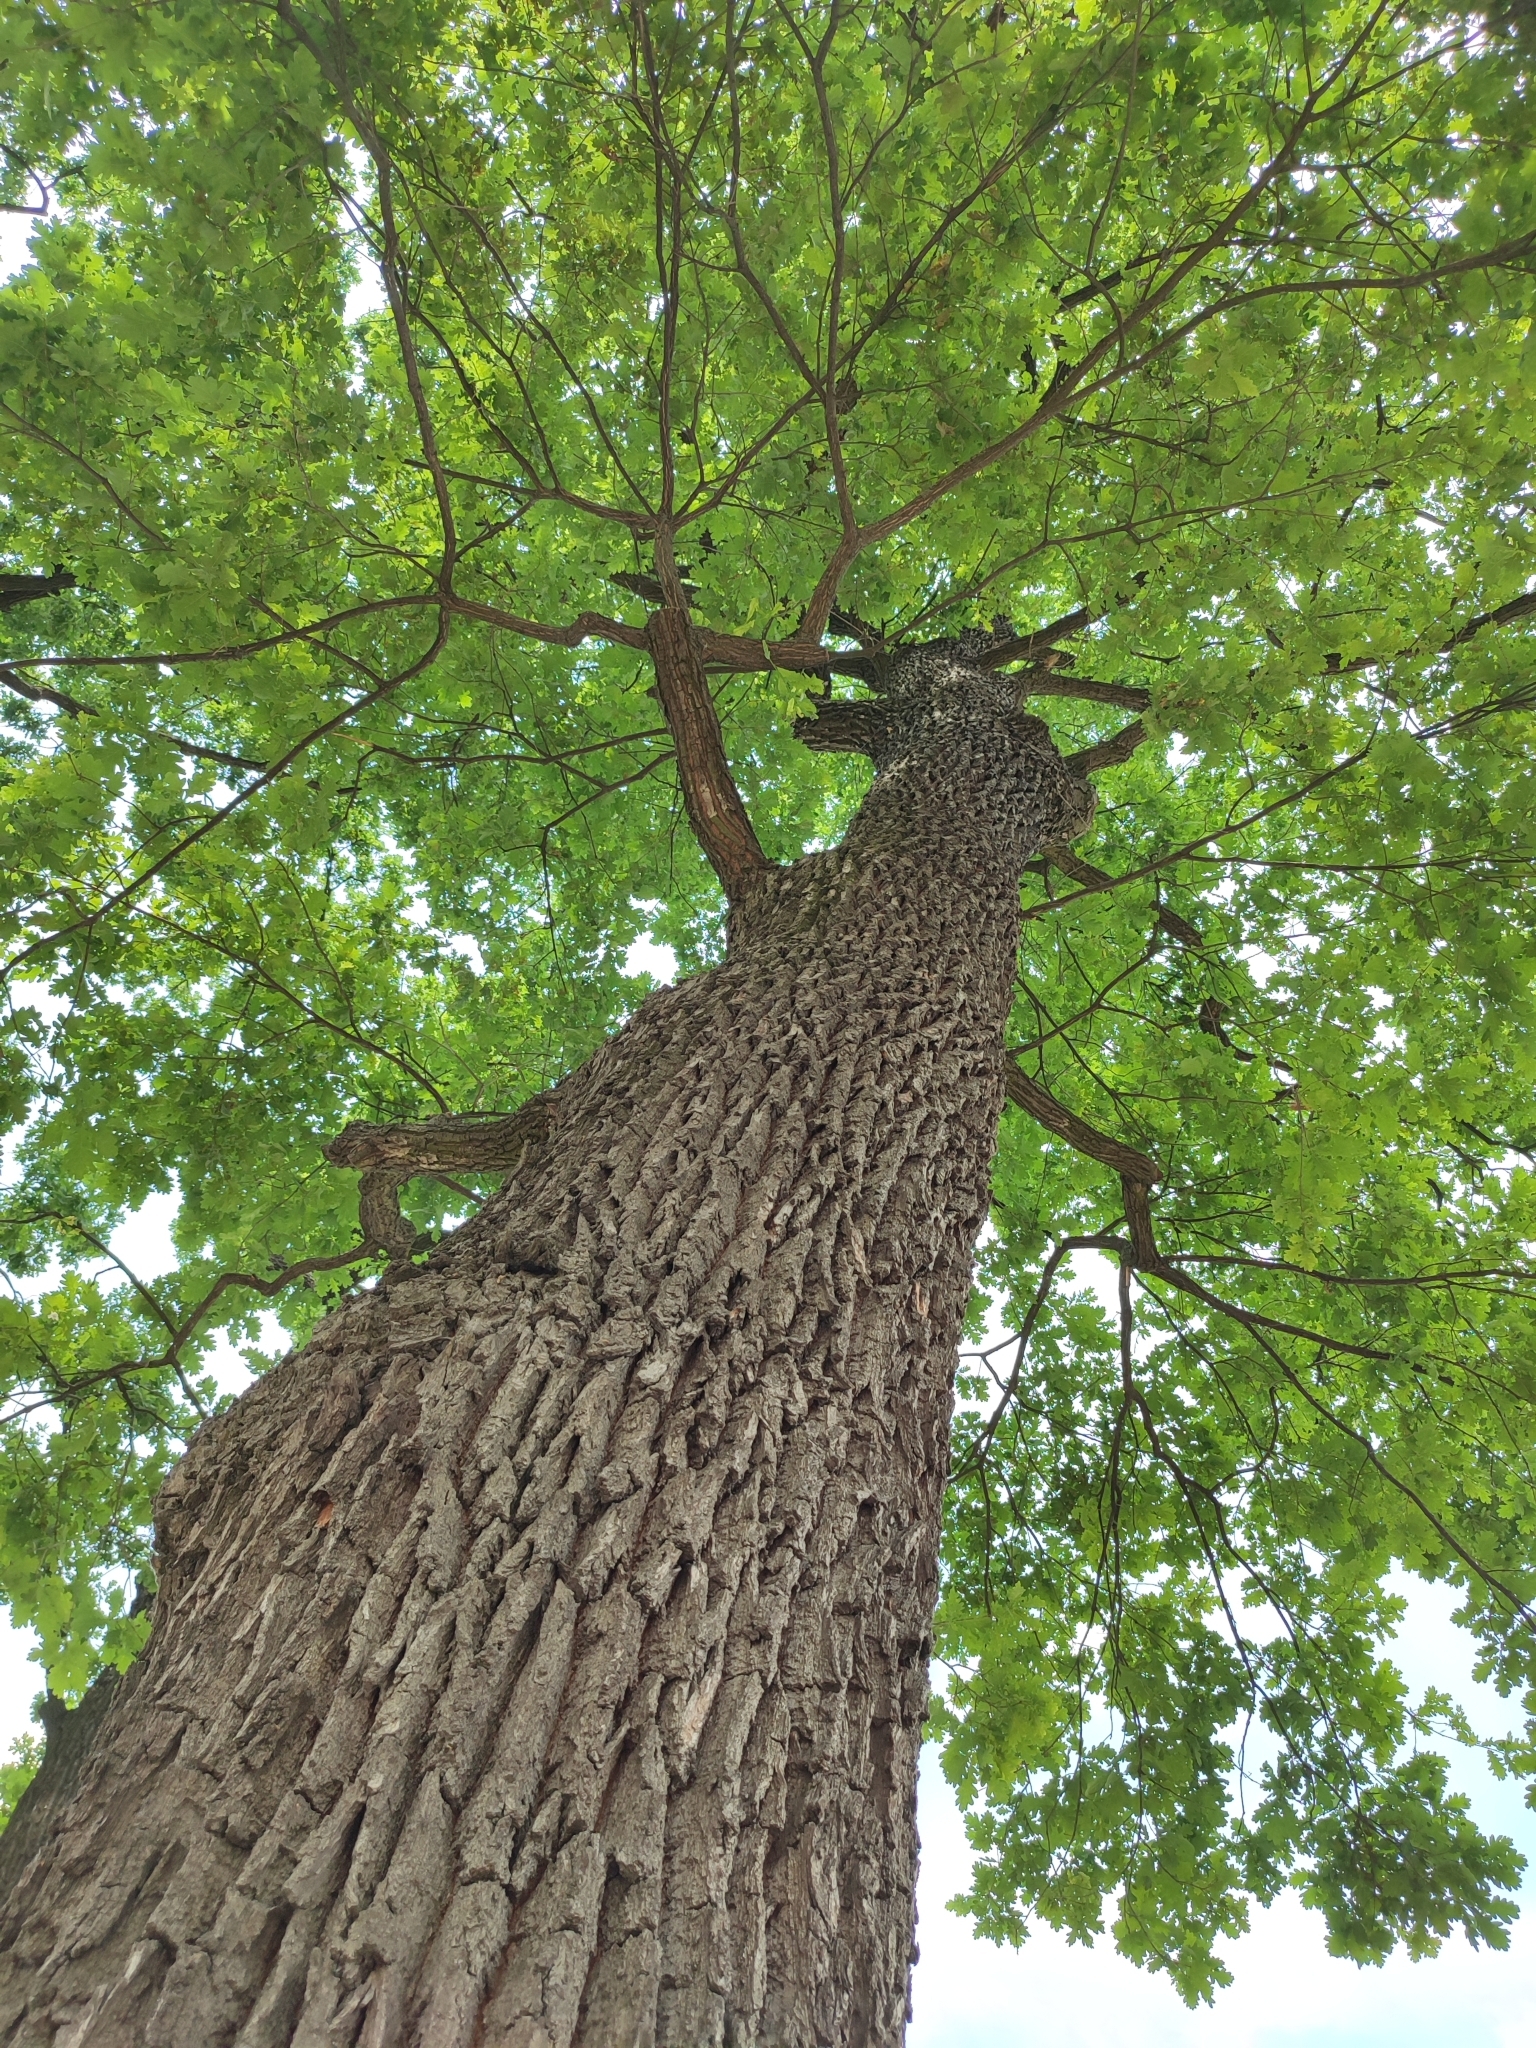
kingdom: Plantae
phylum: Tracheophyta
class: Magnoliopsida
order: Fagales
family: Fagaceae
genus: Quercus
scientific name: Quercus robur
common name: Pedunculate oak
